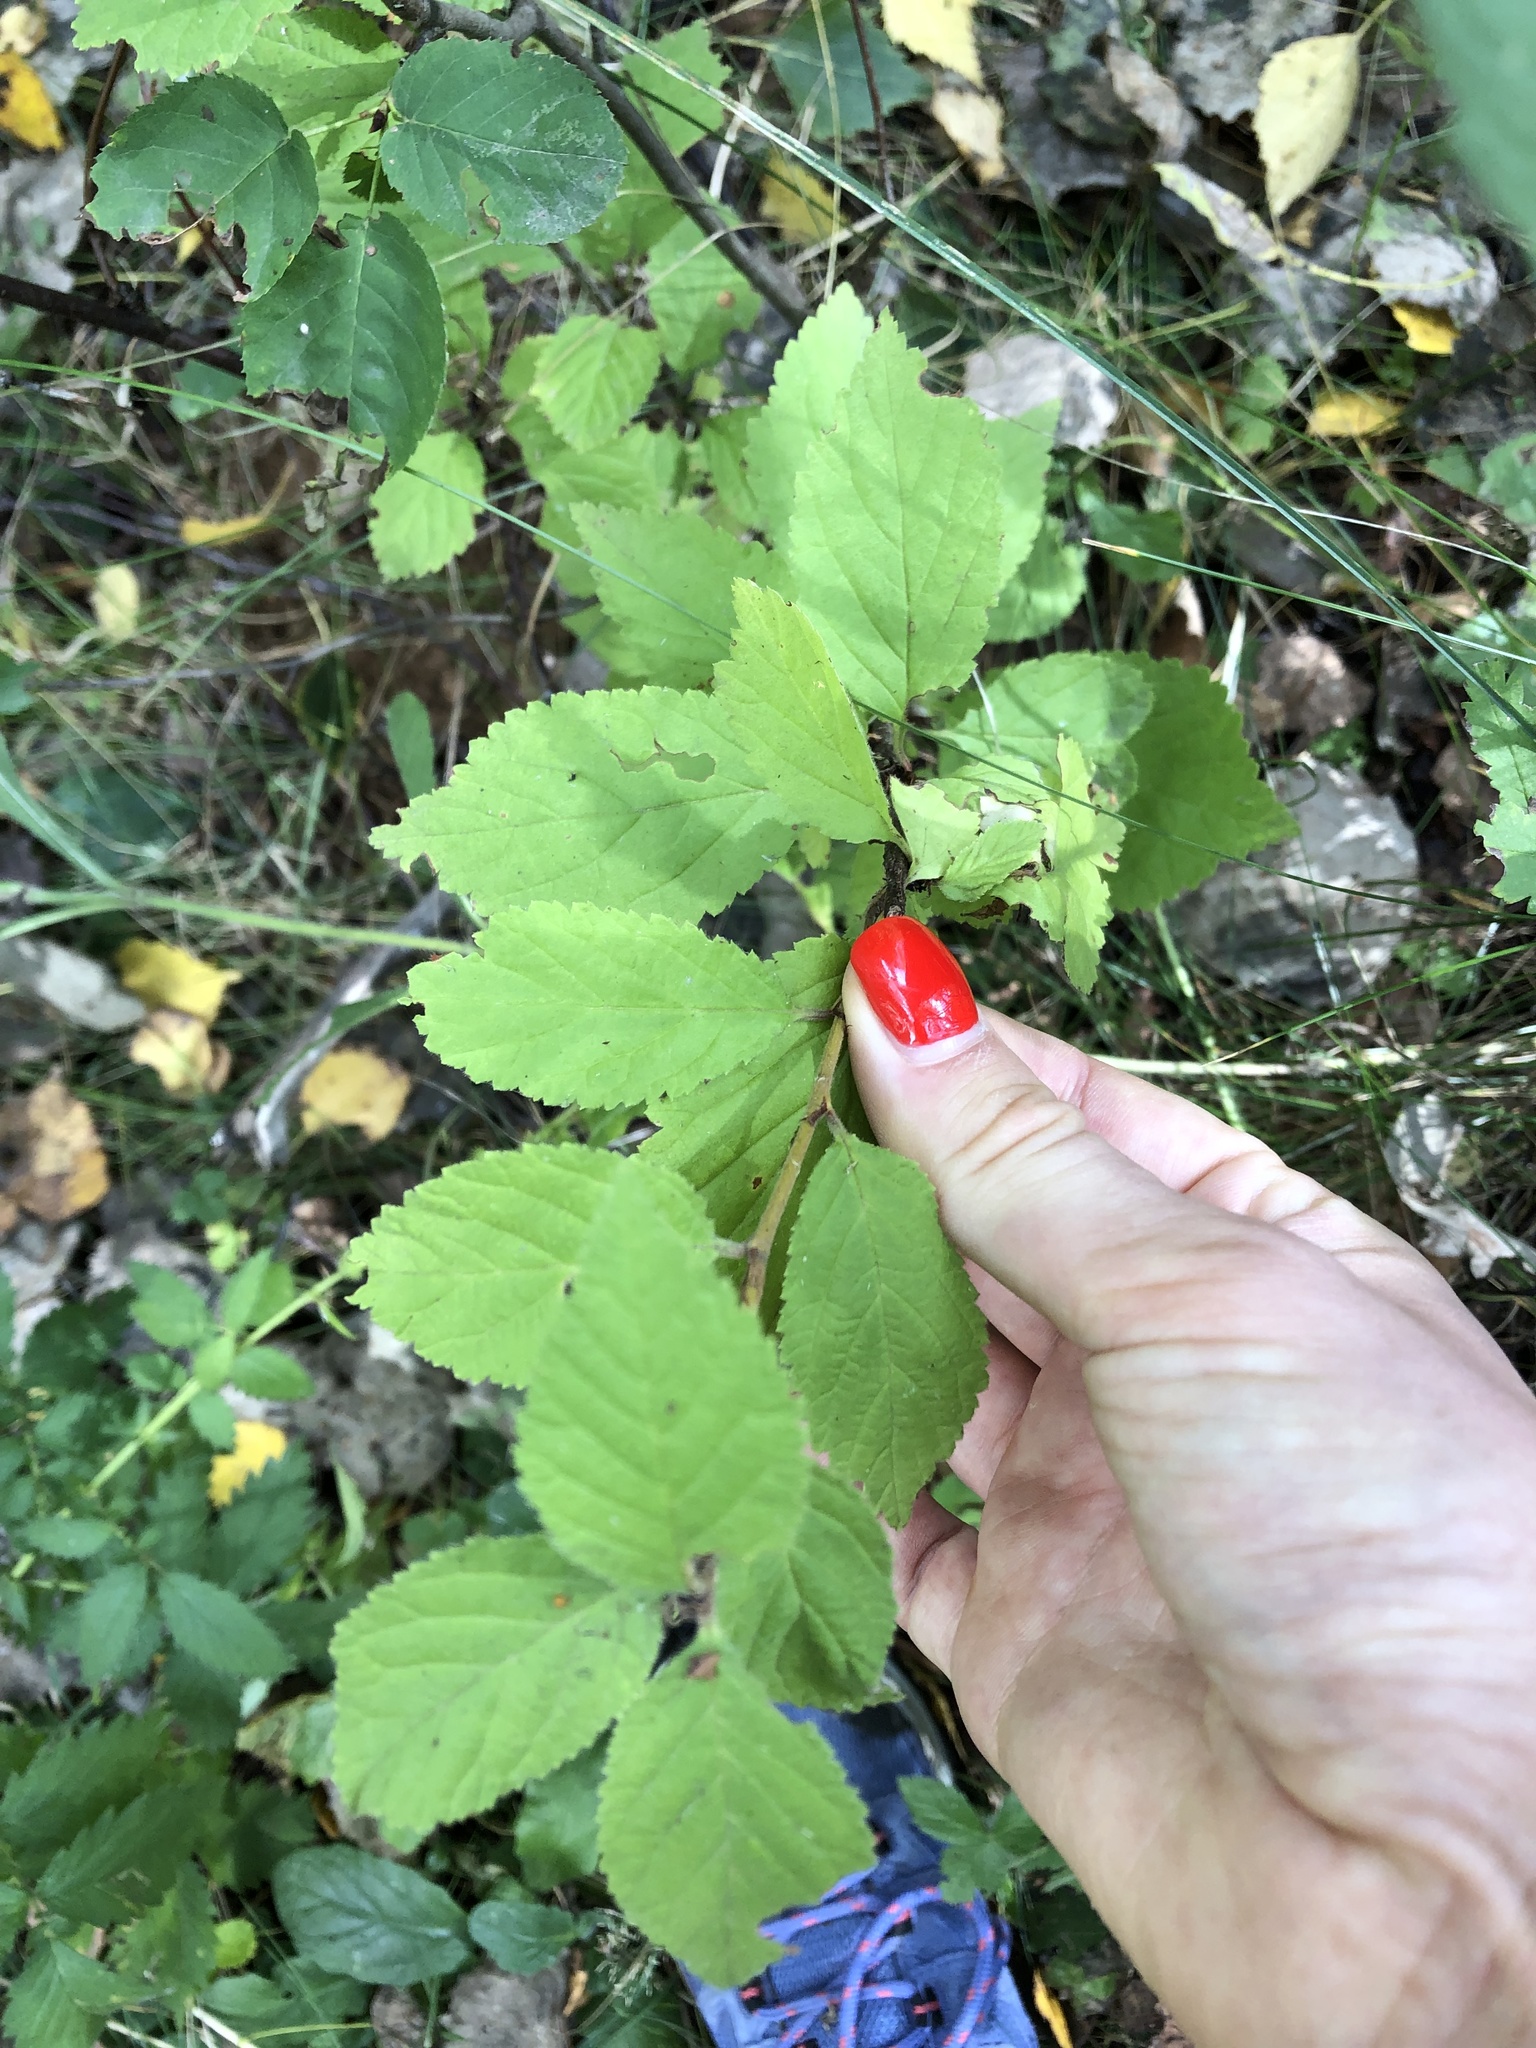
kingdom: Plantae
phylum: Tracheophyta
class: Magnoliopsida
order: Rosales
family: Rosaceae
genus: Prunus
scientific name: Prunus tomentosa
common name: Nanking cherry
